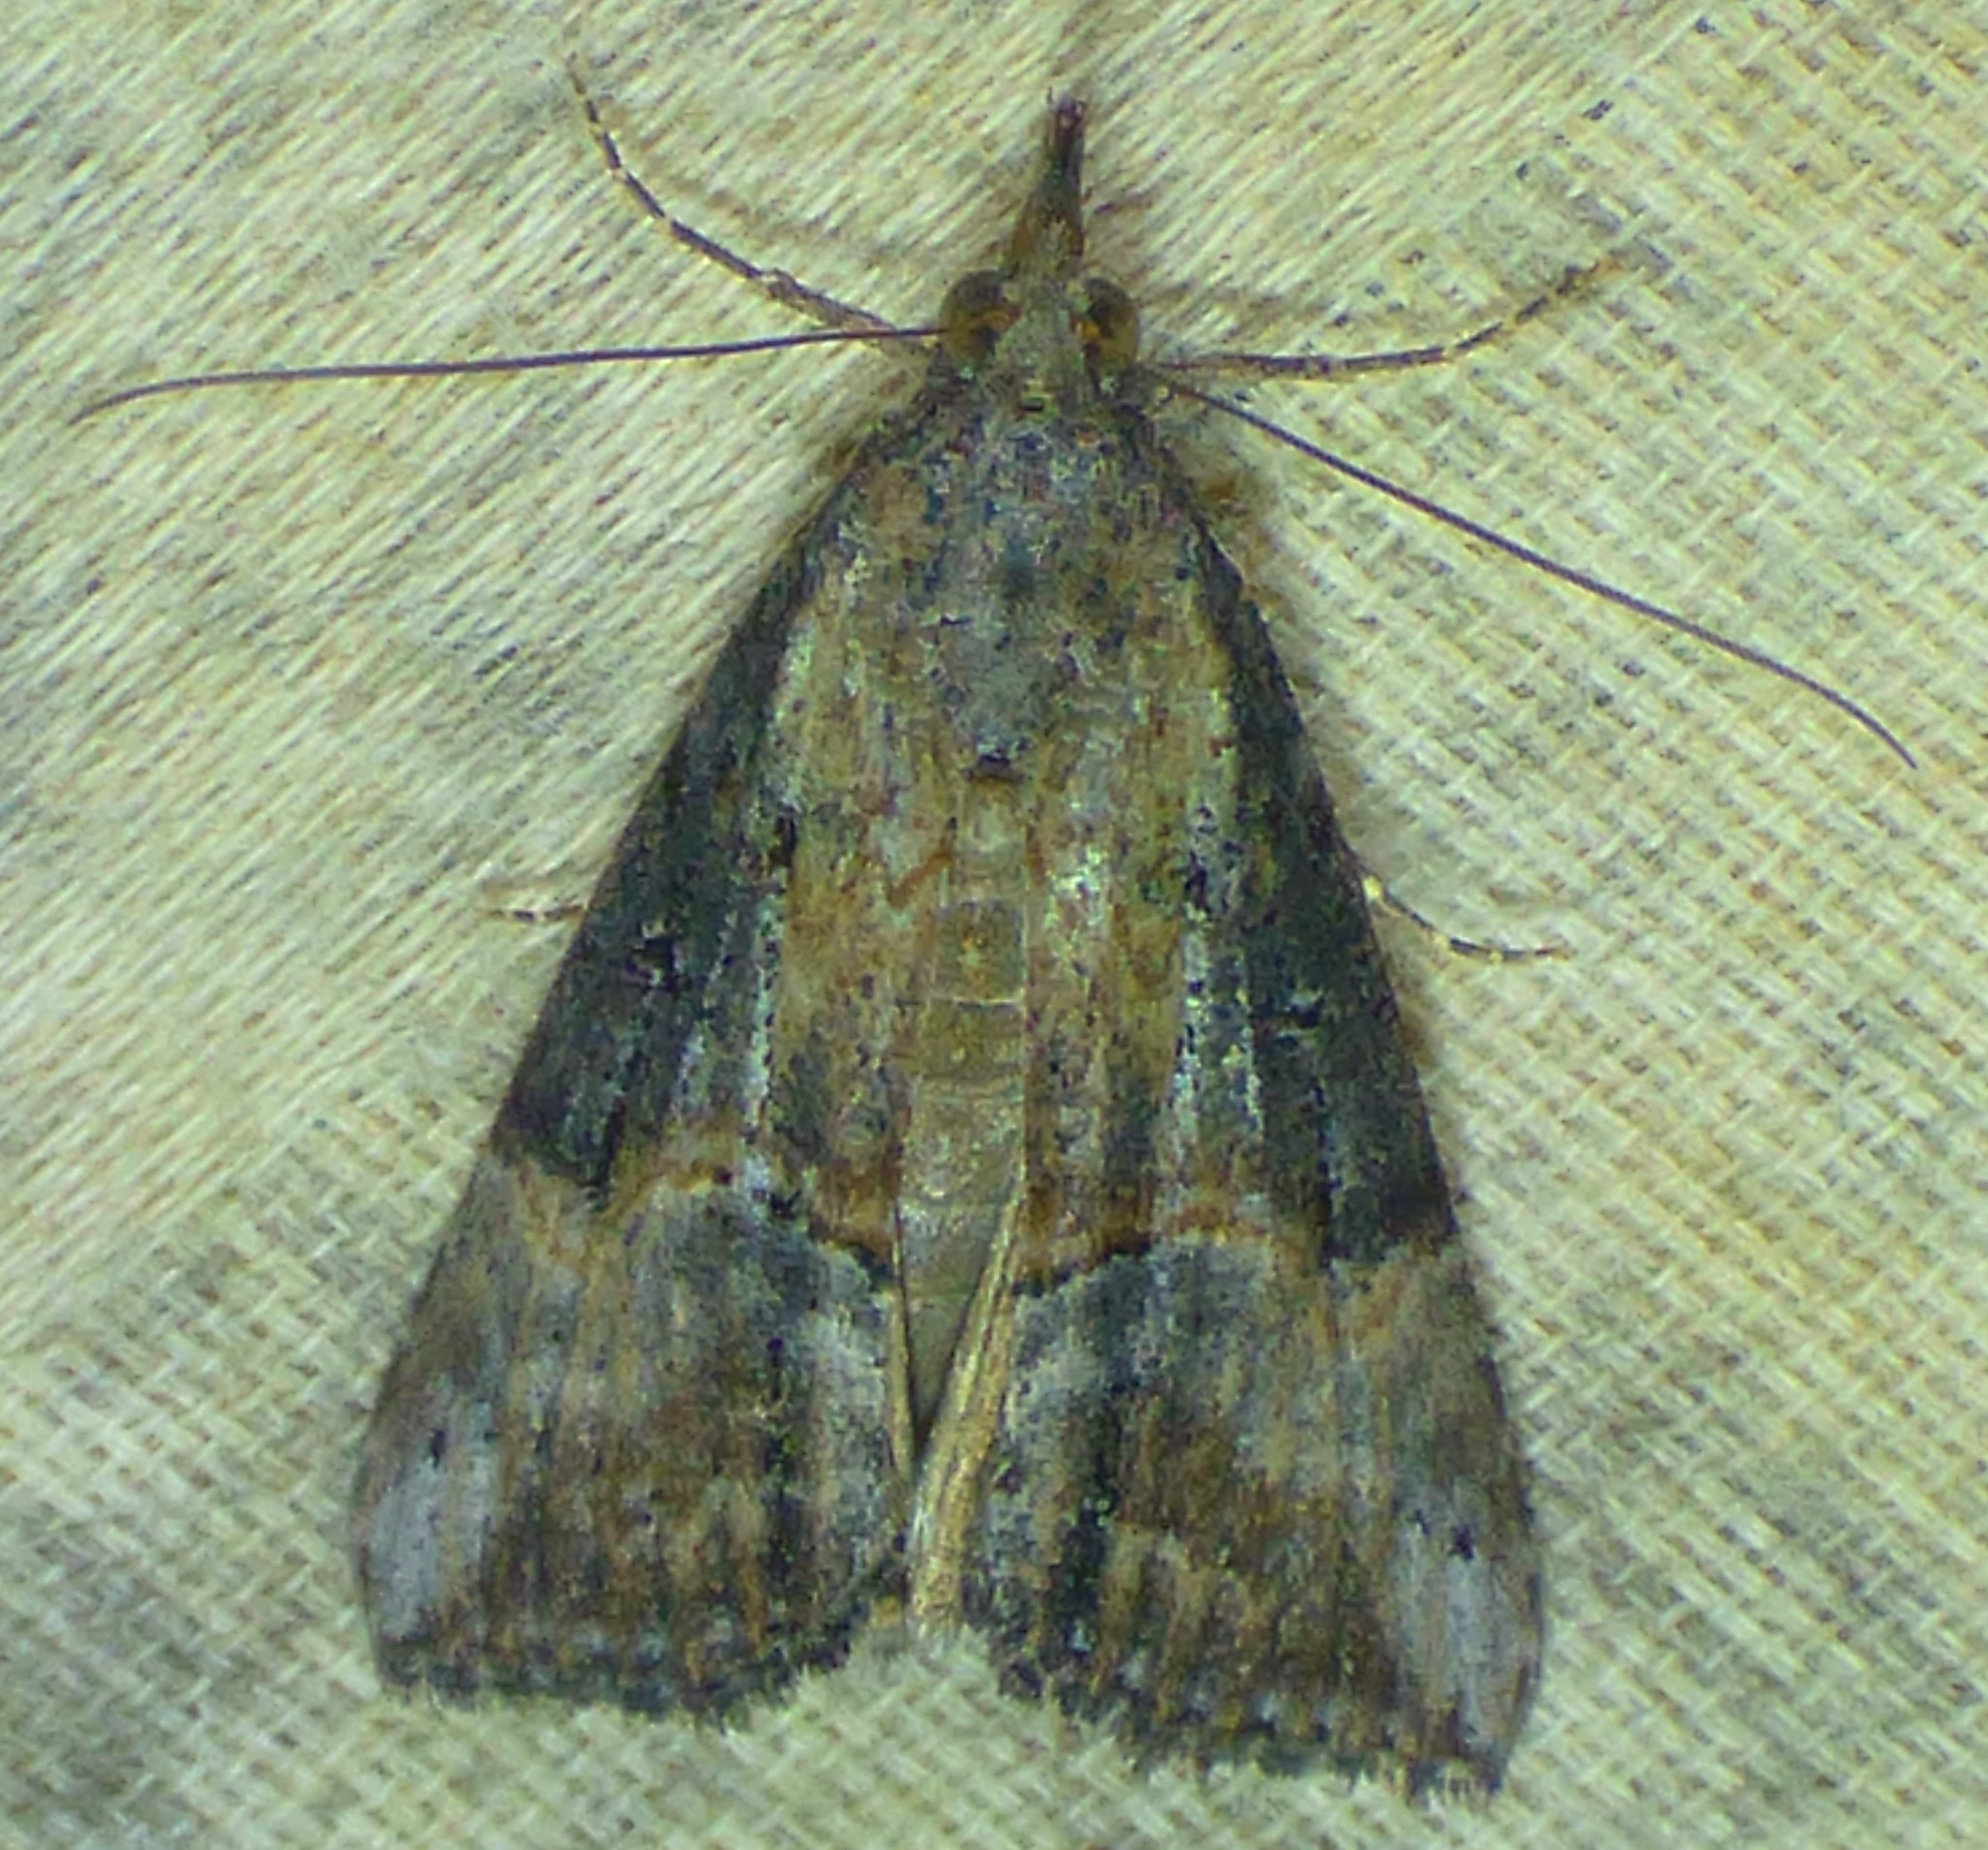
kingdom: Animalia
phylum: Arthropoda
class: Insecta
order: Lepidoptera
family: Erebidae
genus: Hypena
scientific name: Hypena scabra
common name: Green cloverworm
